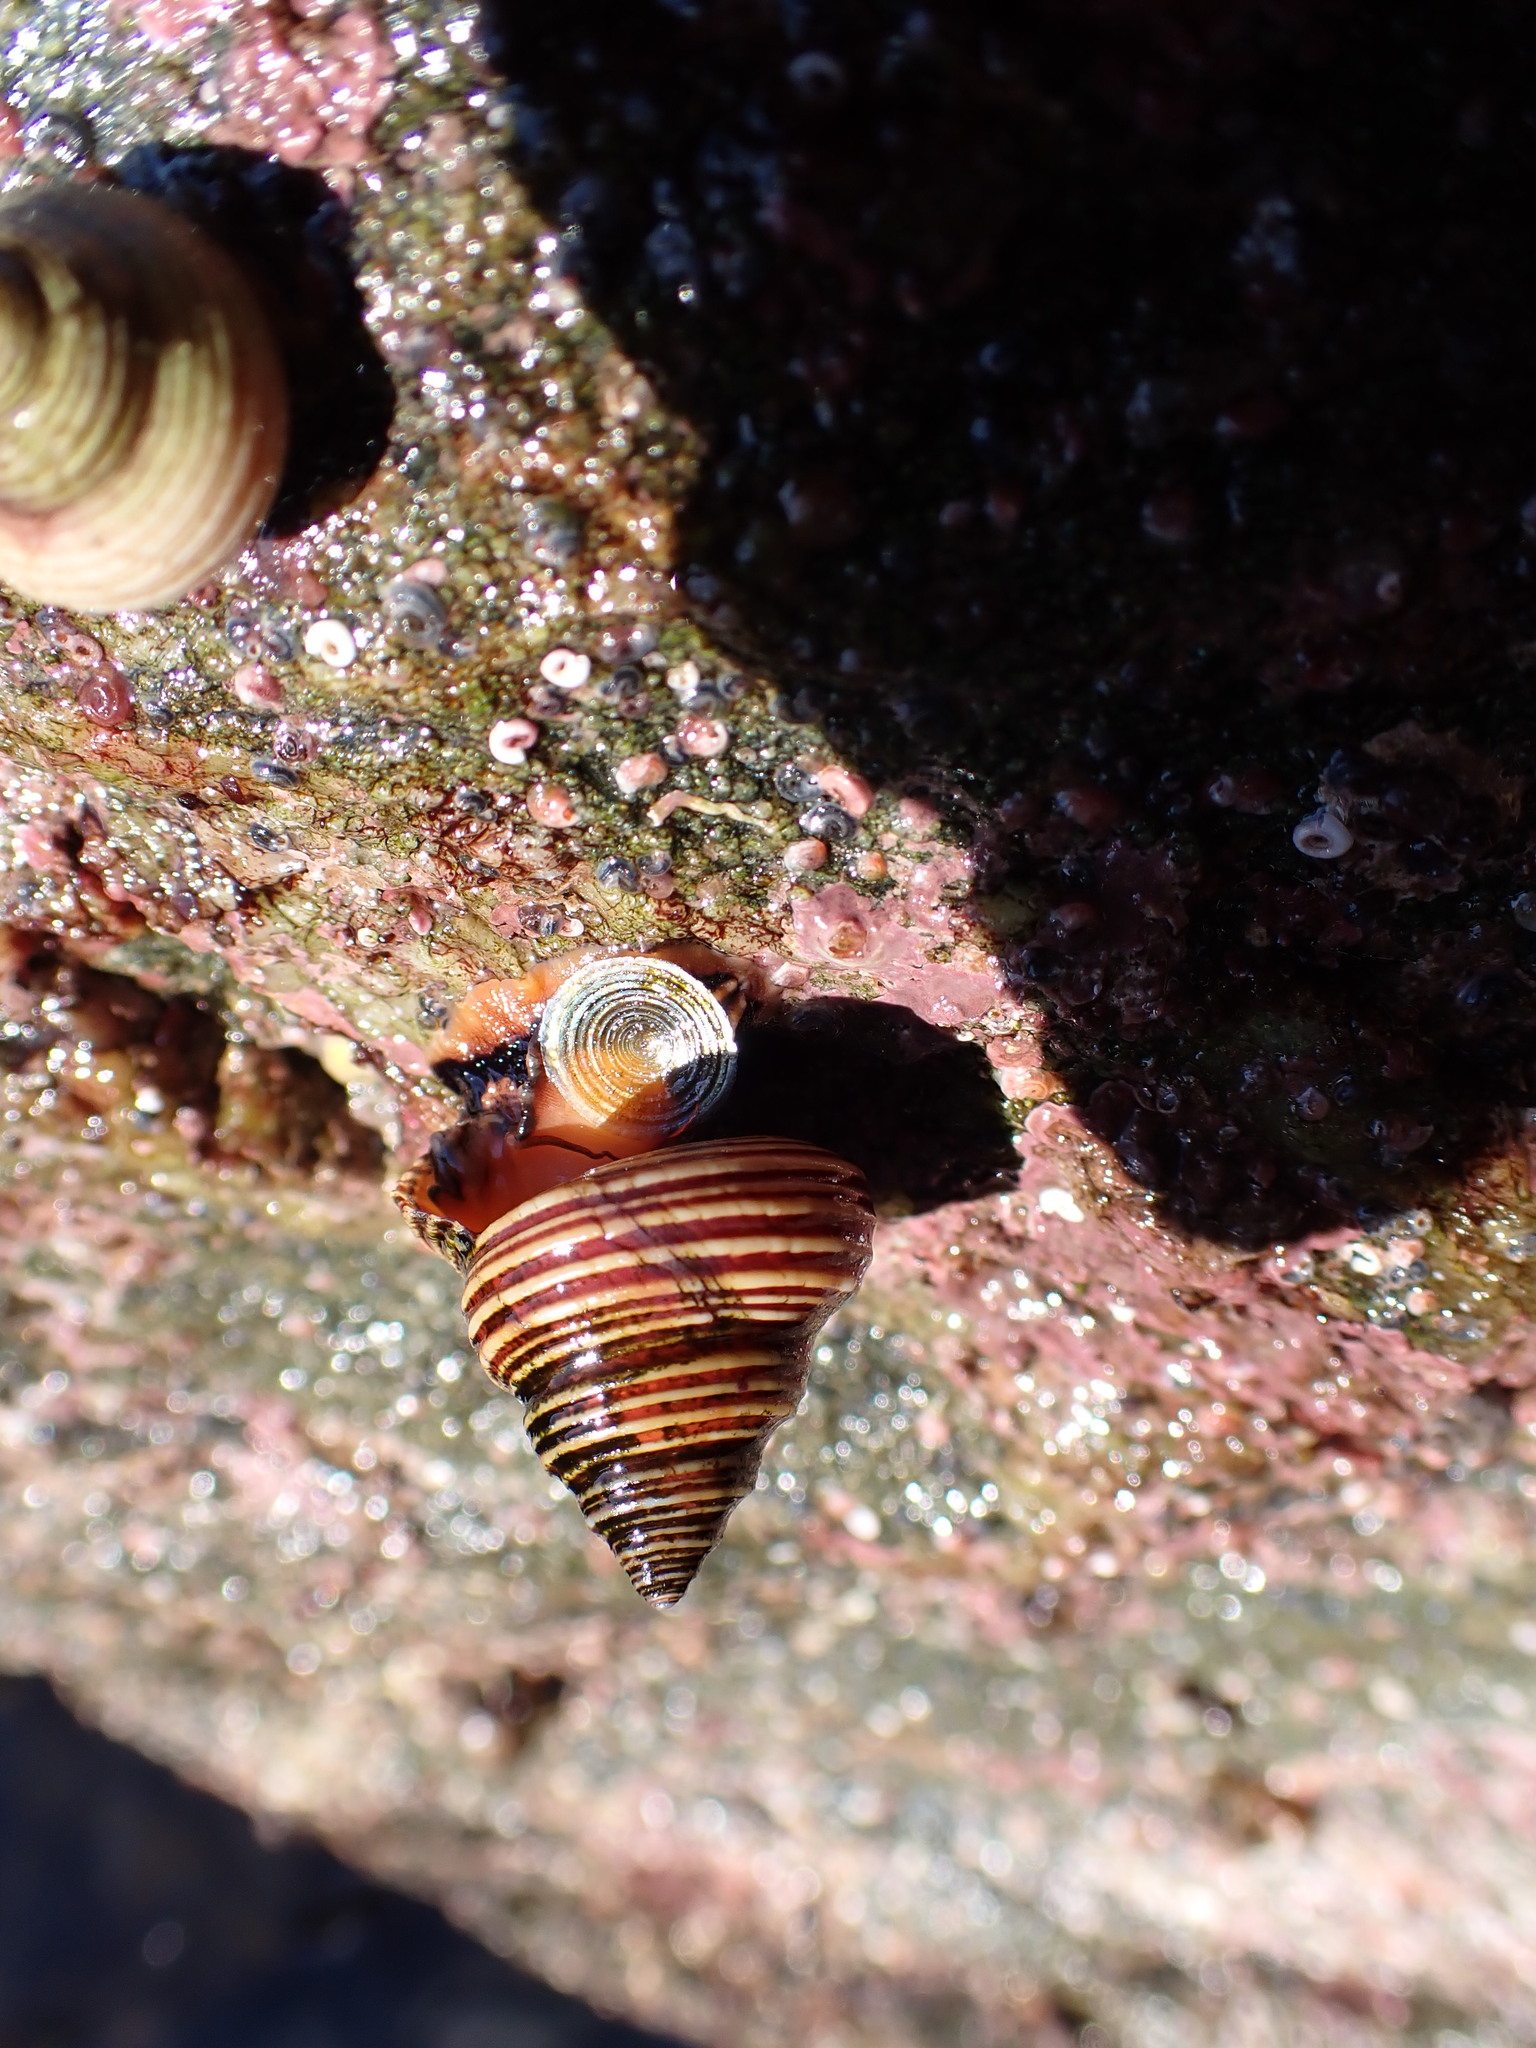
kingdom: Animalia
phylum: Mollusca
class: Gastropoda
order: Trochida
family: Calliostomatidae
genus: Calliostoma
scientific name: Calliostoma ligatum
